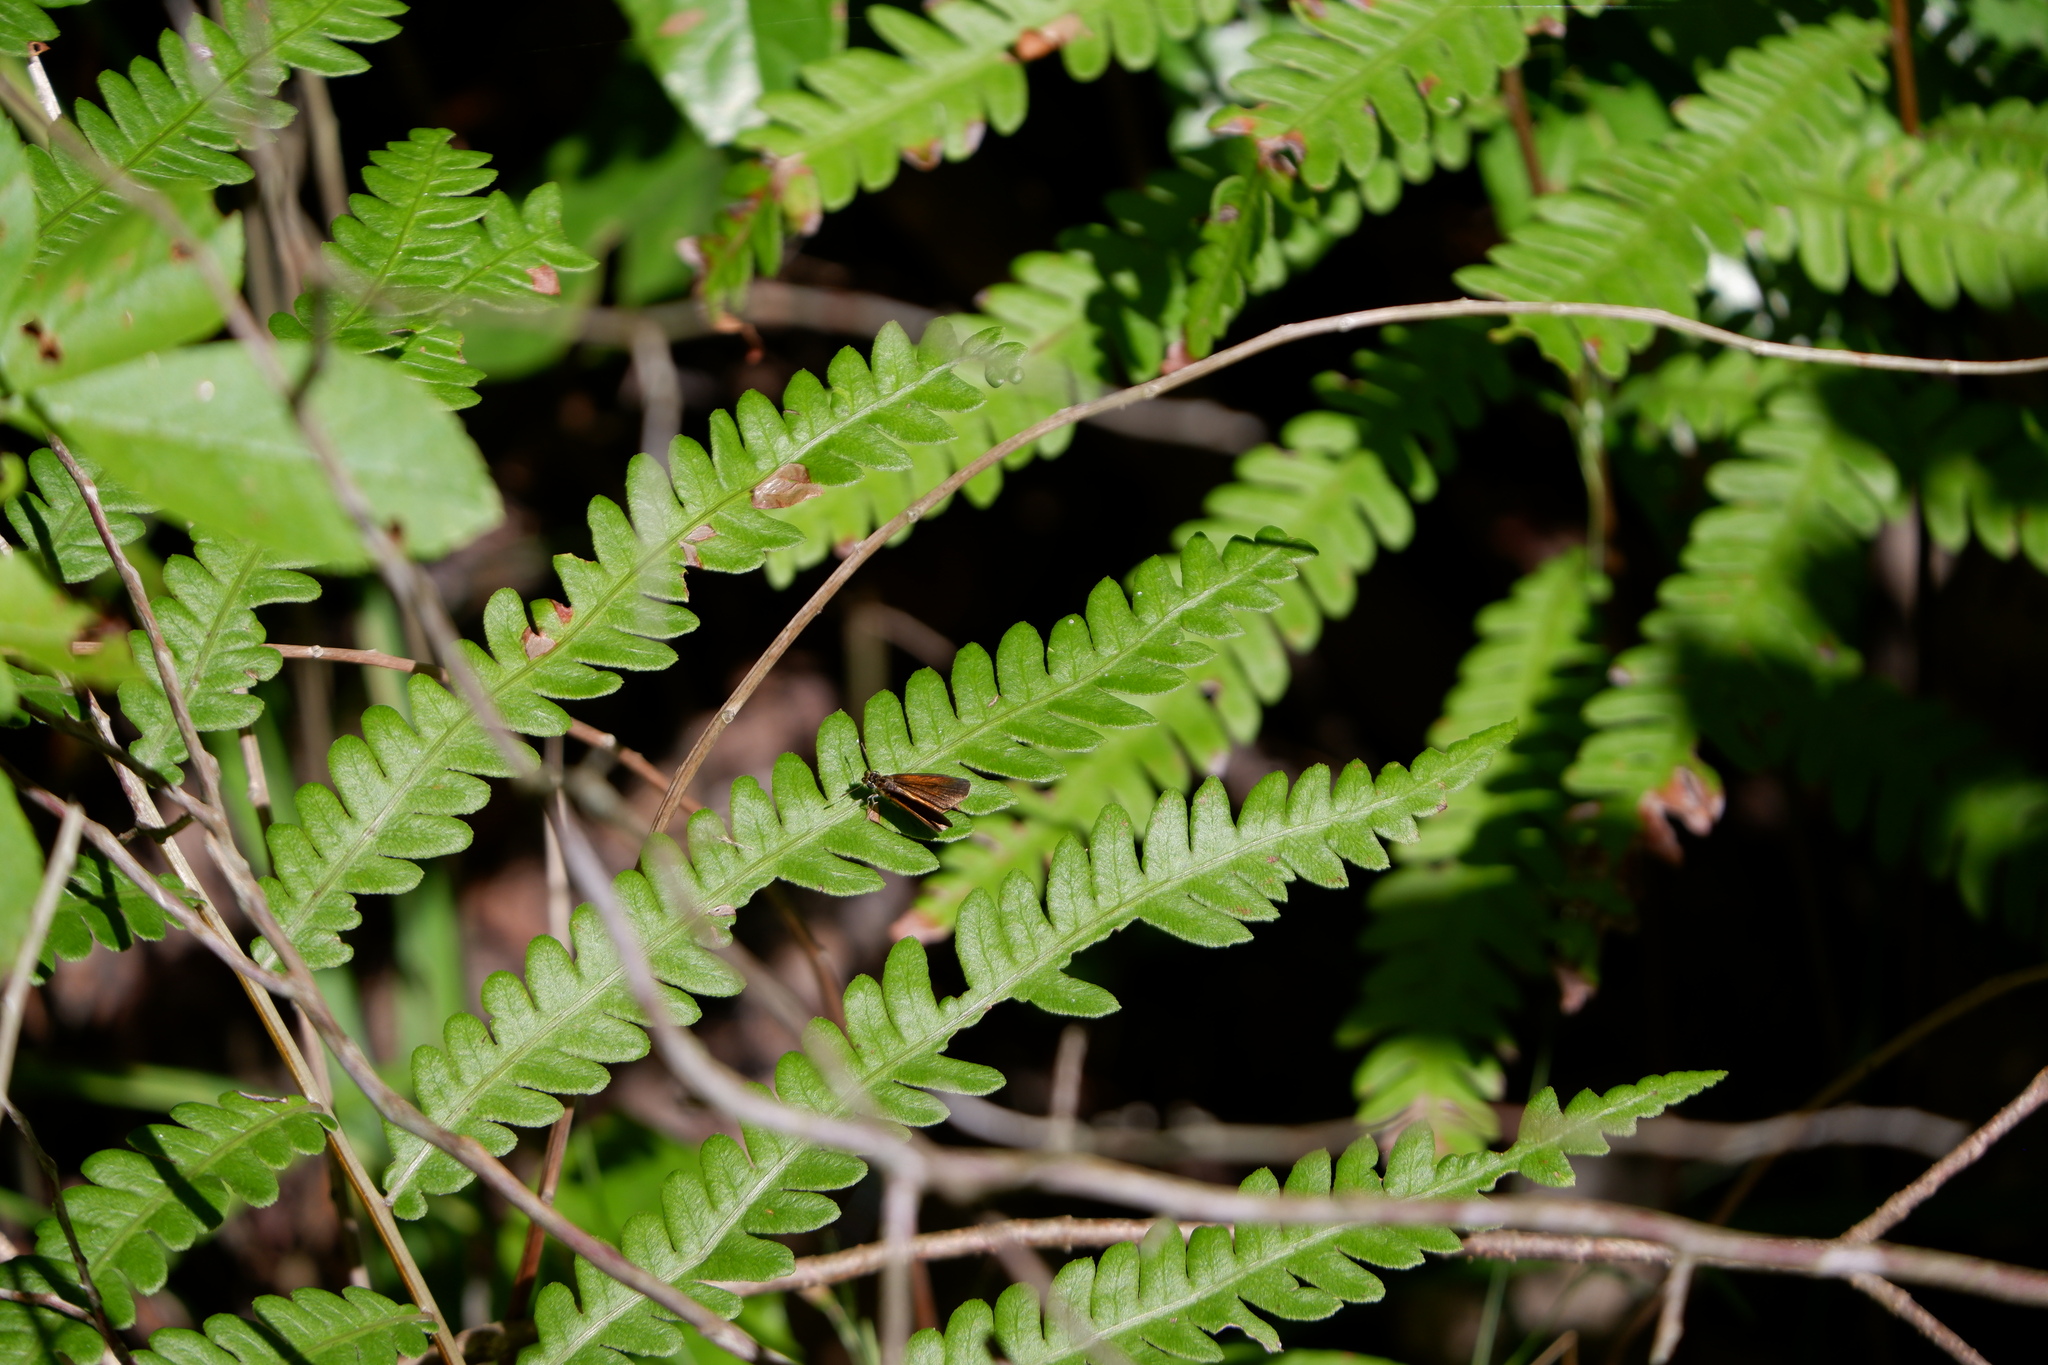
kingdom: Animalia
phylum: Arthropoda
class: Insecta
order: Lepidoptera
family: Hesperiidae
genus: Ancyloxypha
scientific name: Ancyloxypha numitor
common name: Least skipper
